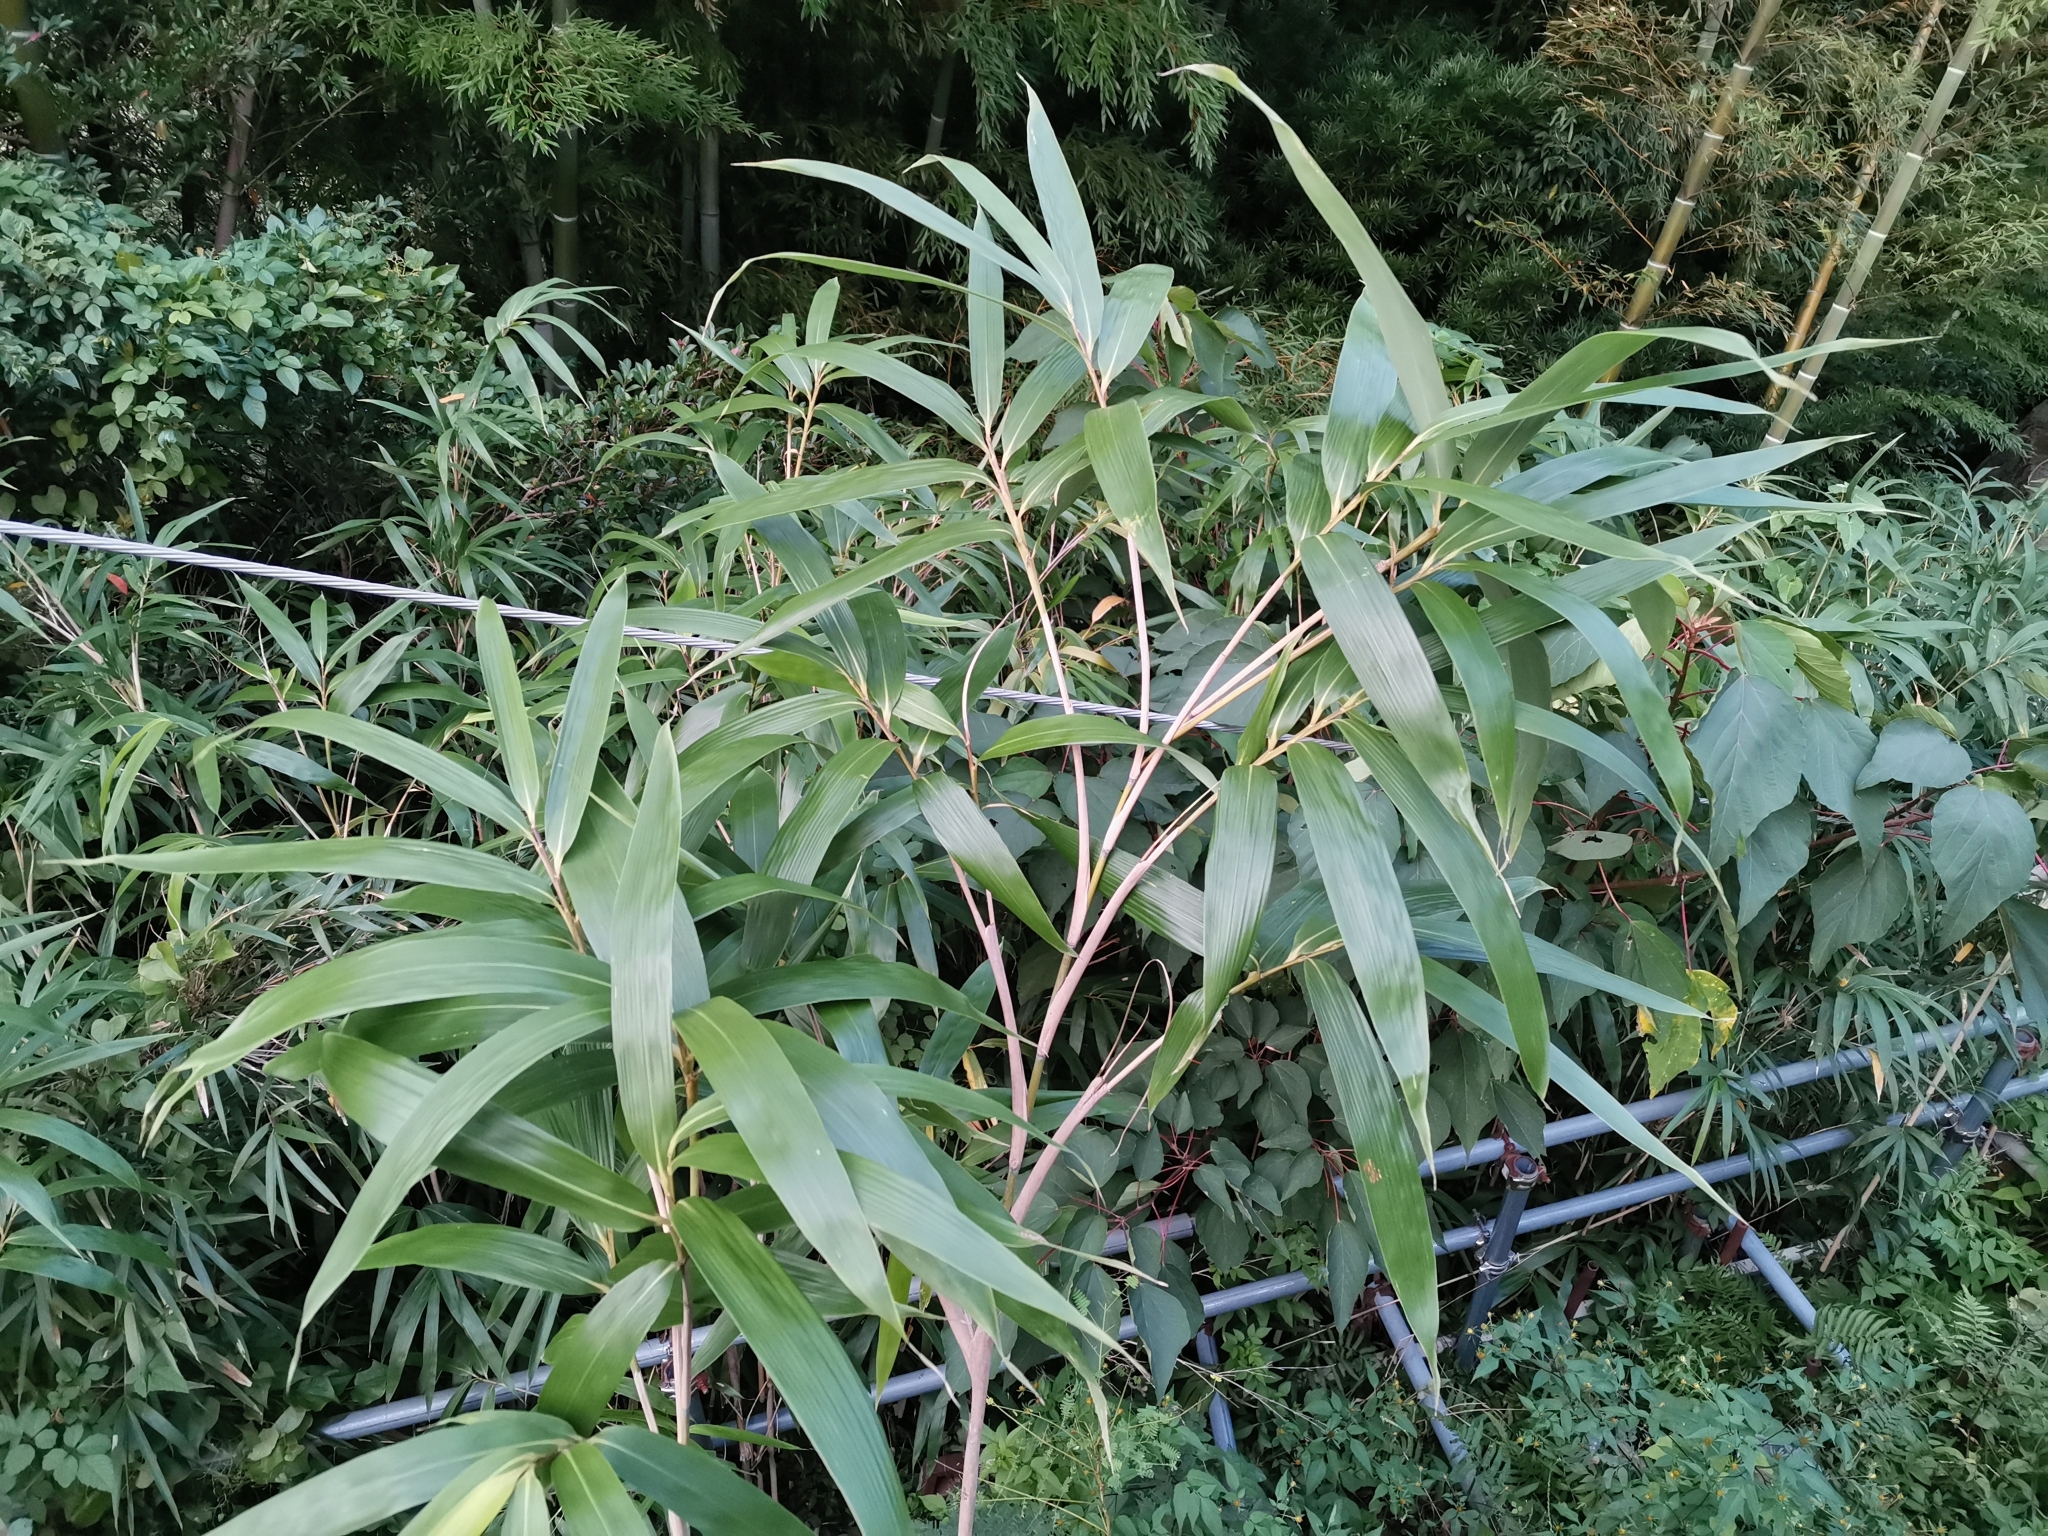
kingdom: Plantae
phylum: Tracheophyta
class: Liliopsida
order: Poales
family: Poaceae
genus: Pseudosasa
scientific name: Pseudosasa japonica
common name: Arrow bamboo
